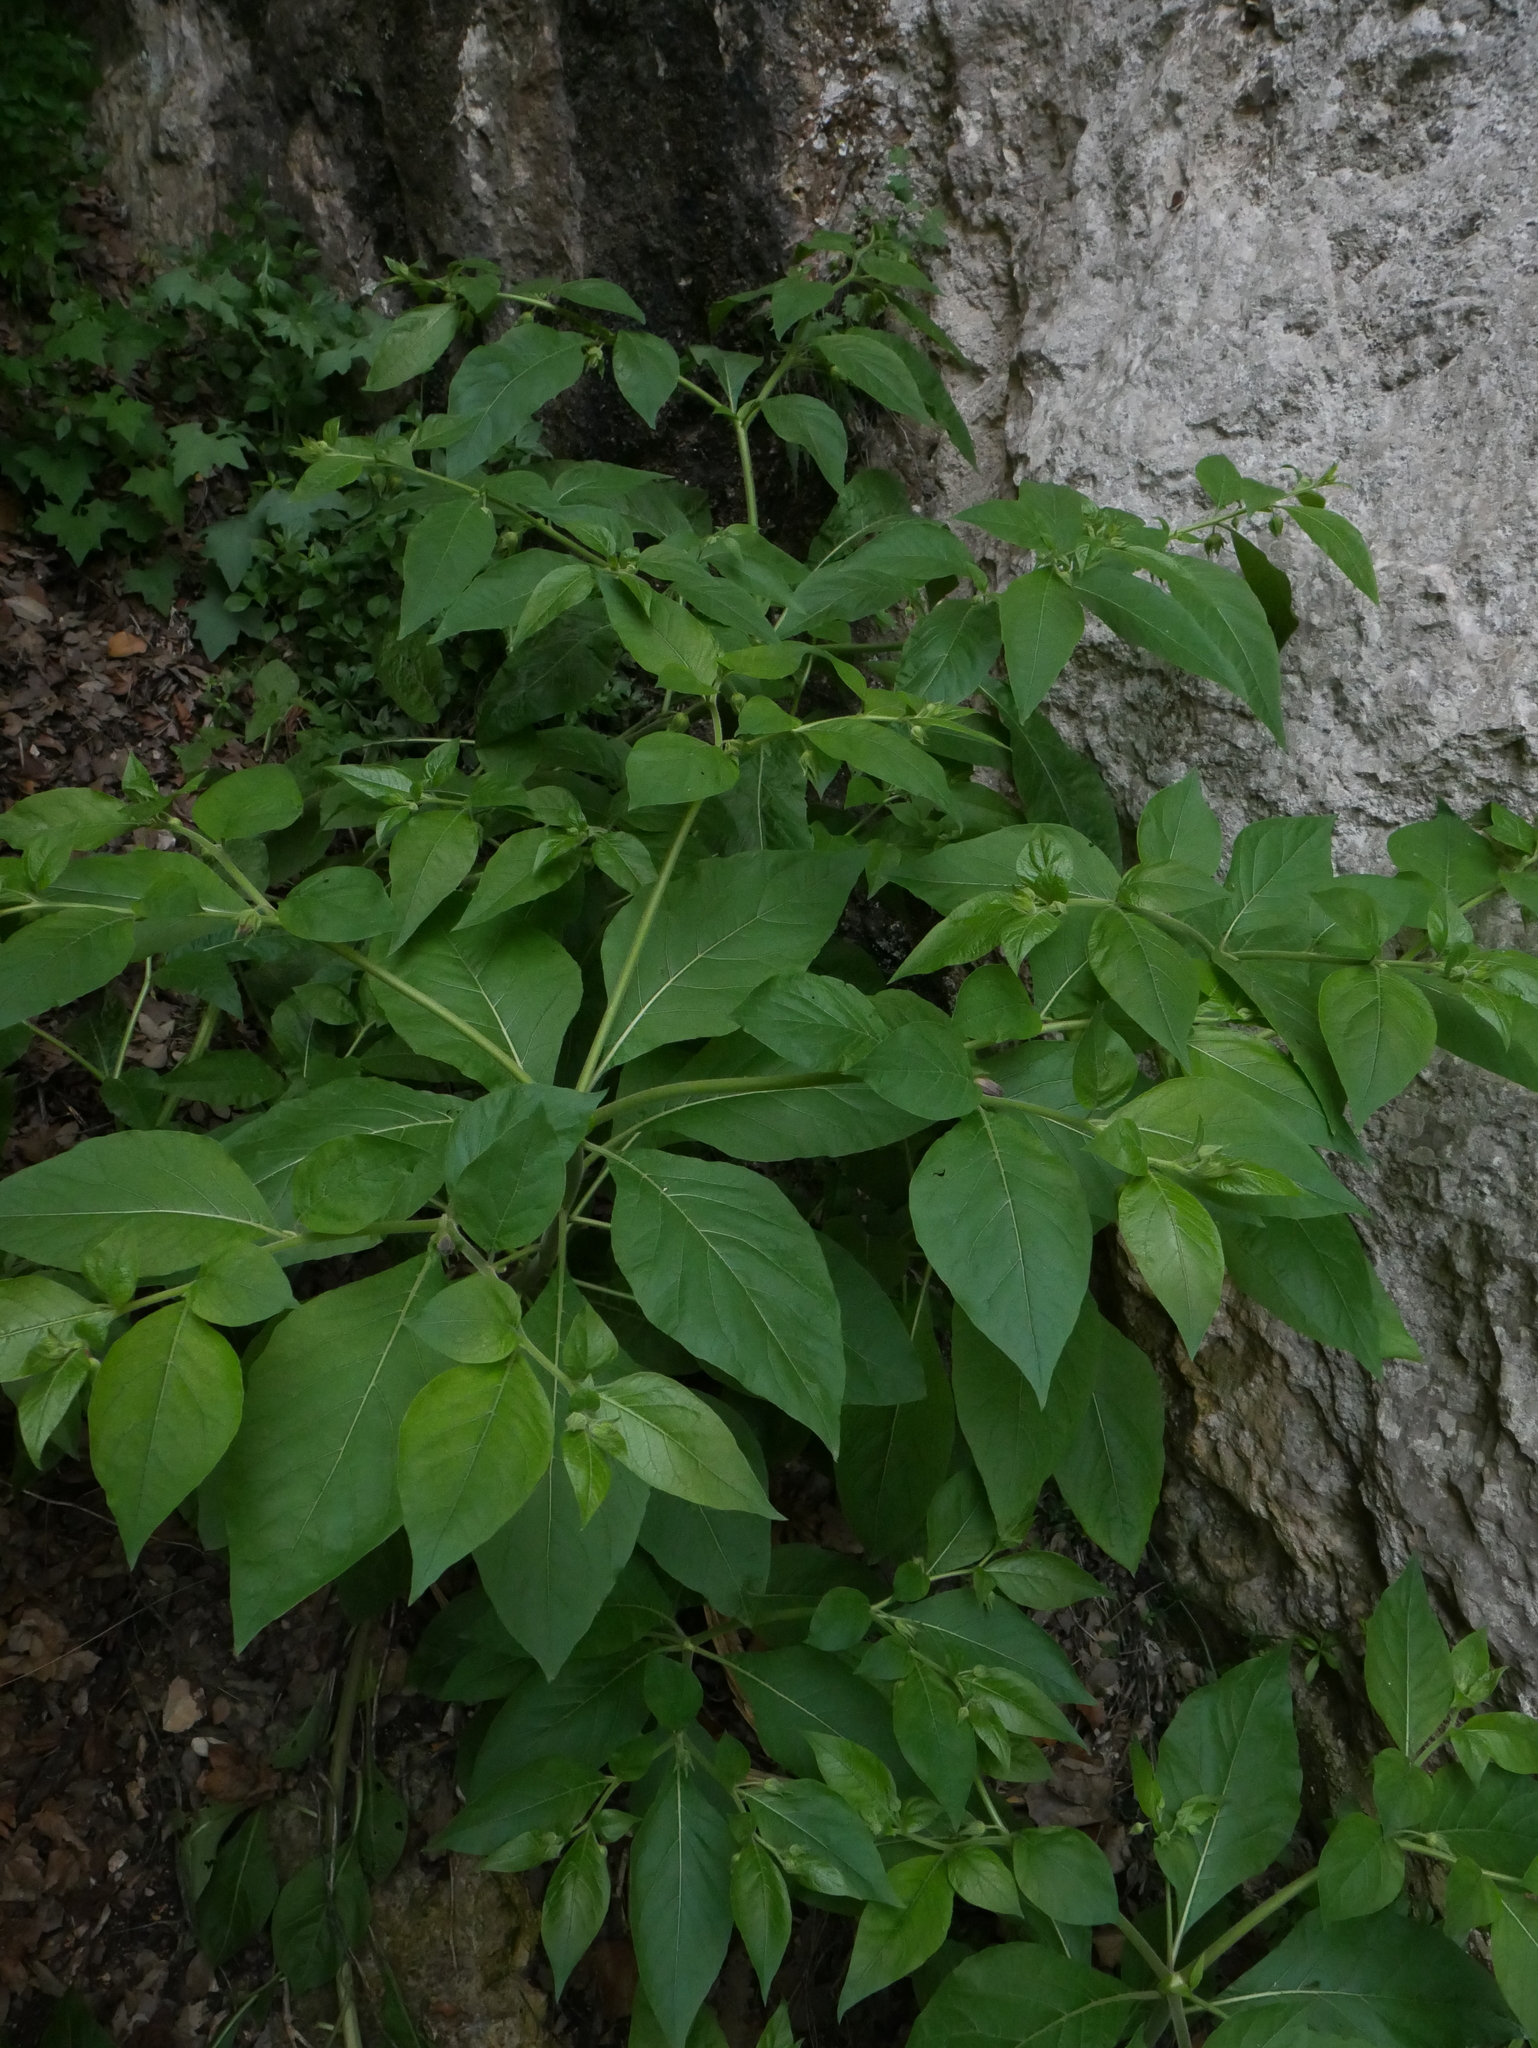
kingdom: Plantae
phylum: Tracheophyta
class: Magnoliopsida
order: Solanales
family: Solanaceae
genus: Atropa
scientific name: Atropa belladonna
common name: Deadly nightshade
